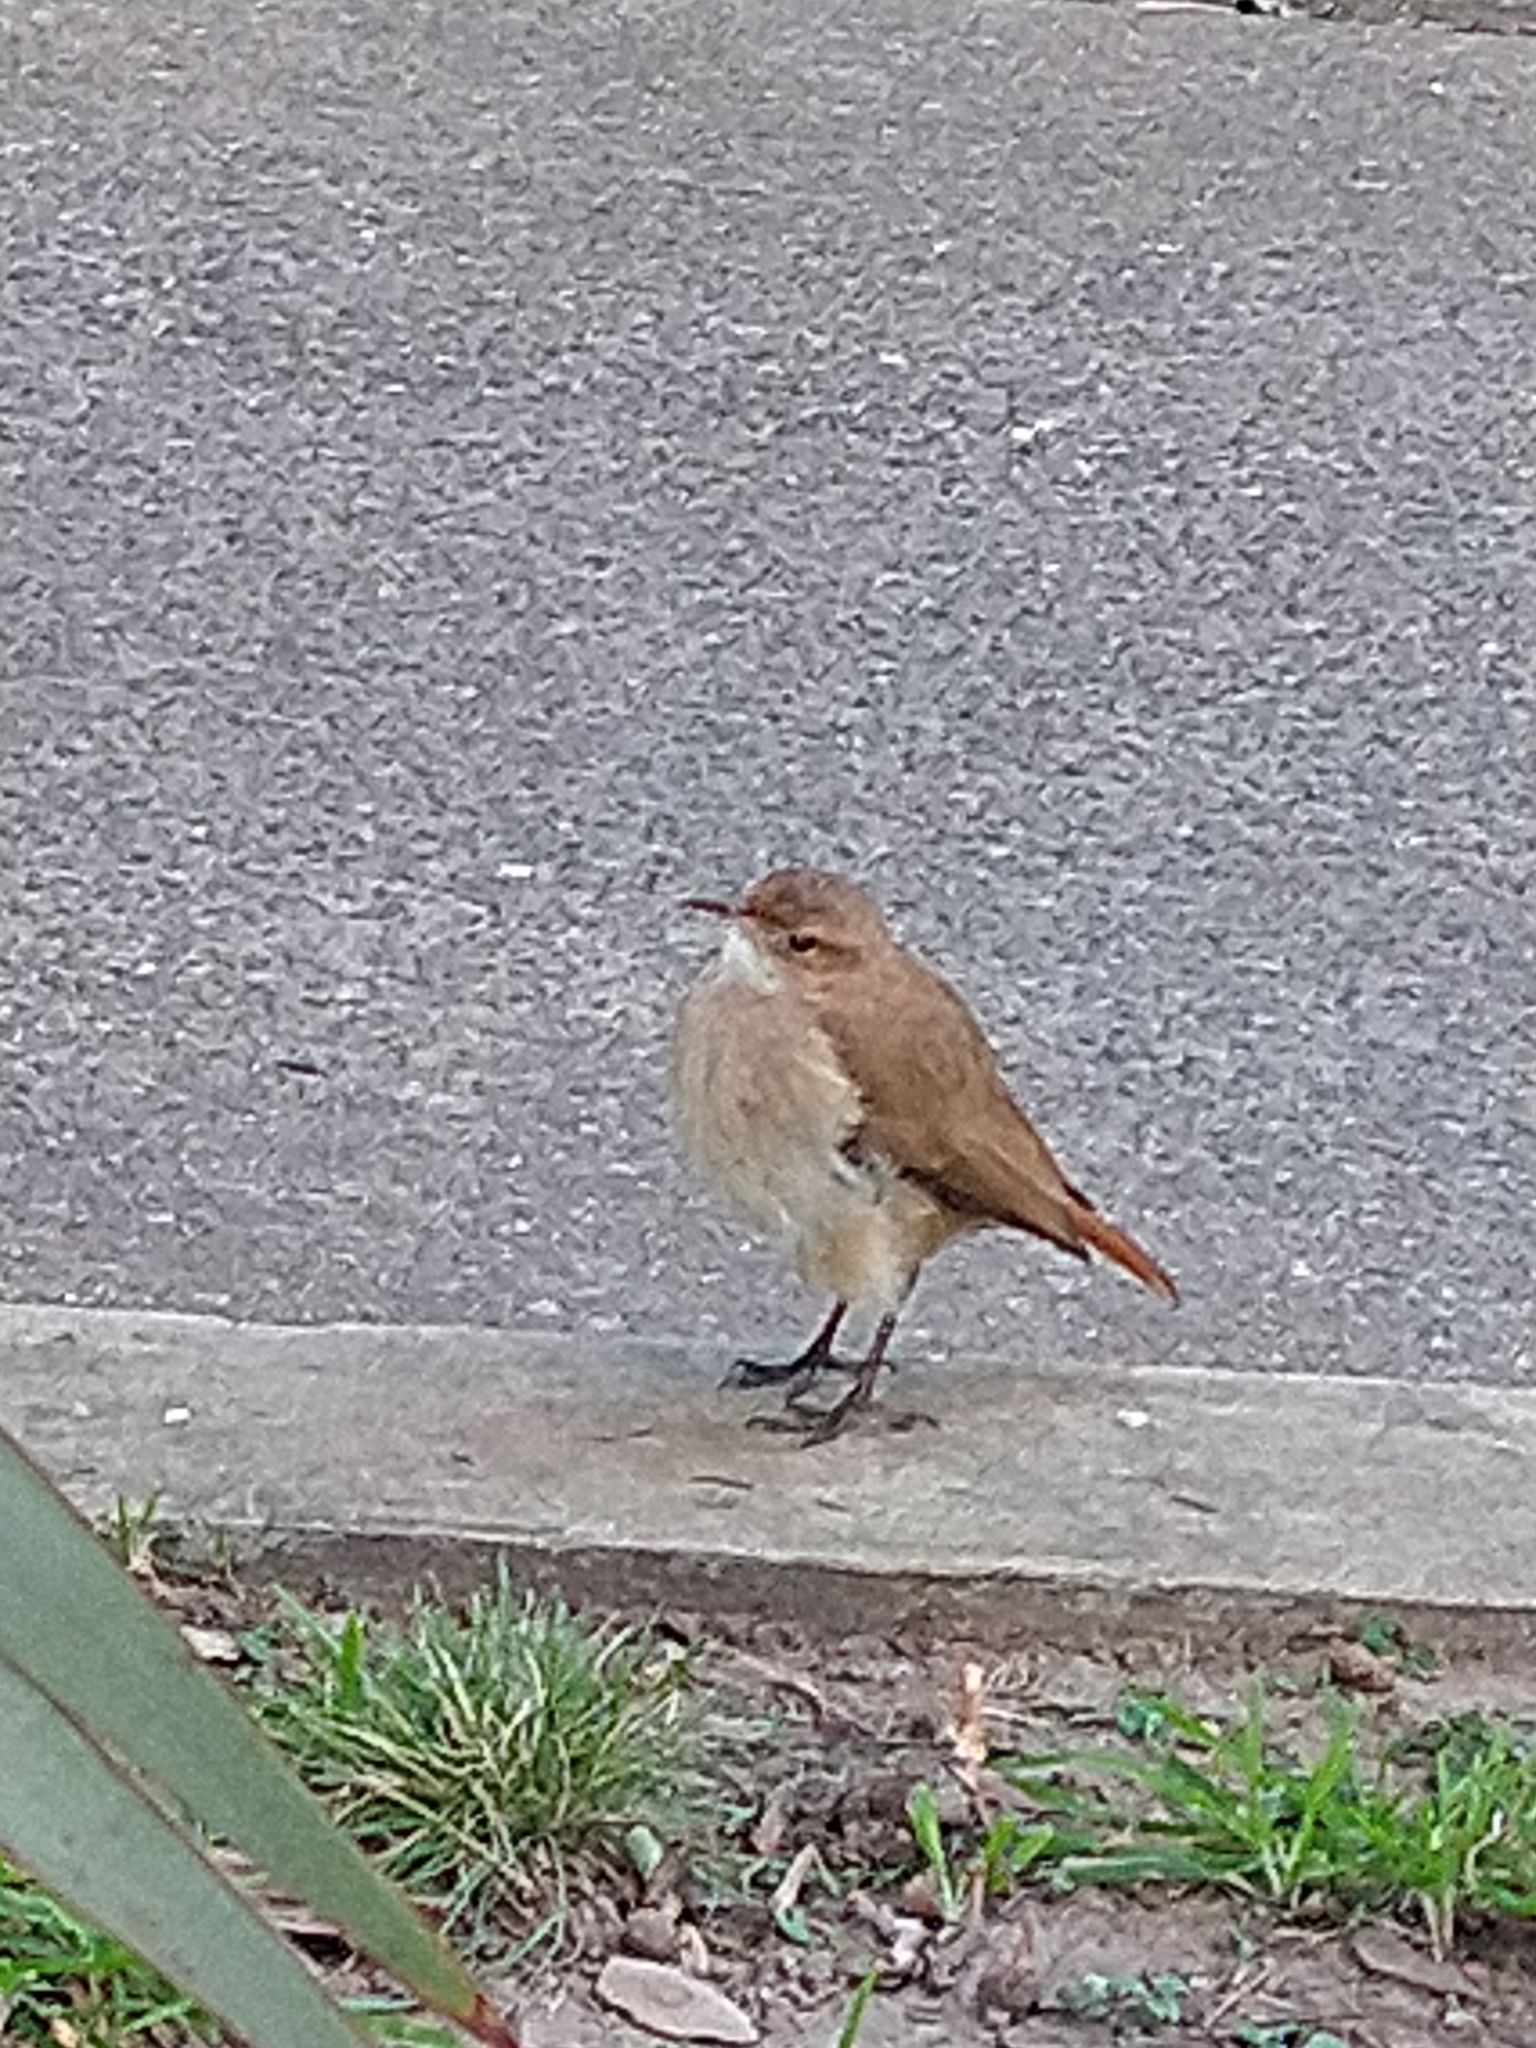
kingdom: Animalia
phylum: Chordata
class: Aves
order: Passeriformes
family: Furnariidae
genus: Furnarius
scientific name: Furnarius rufus
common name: Rufous hornero
